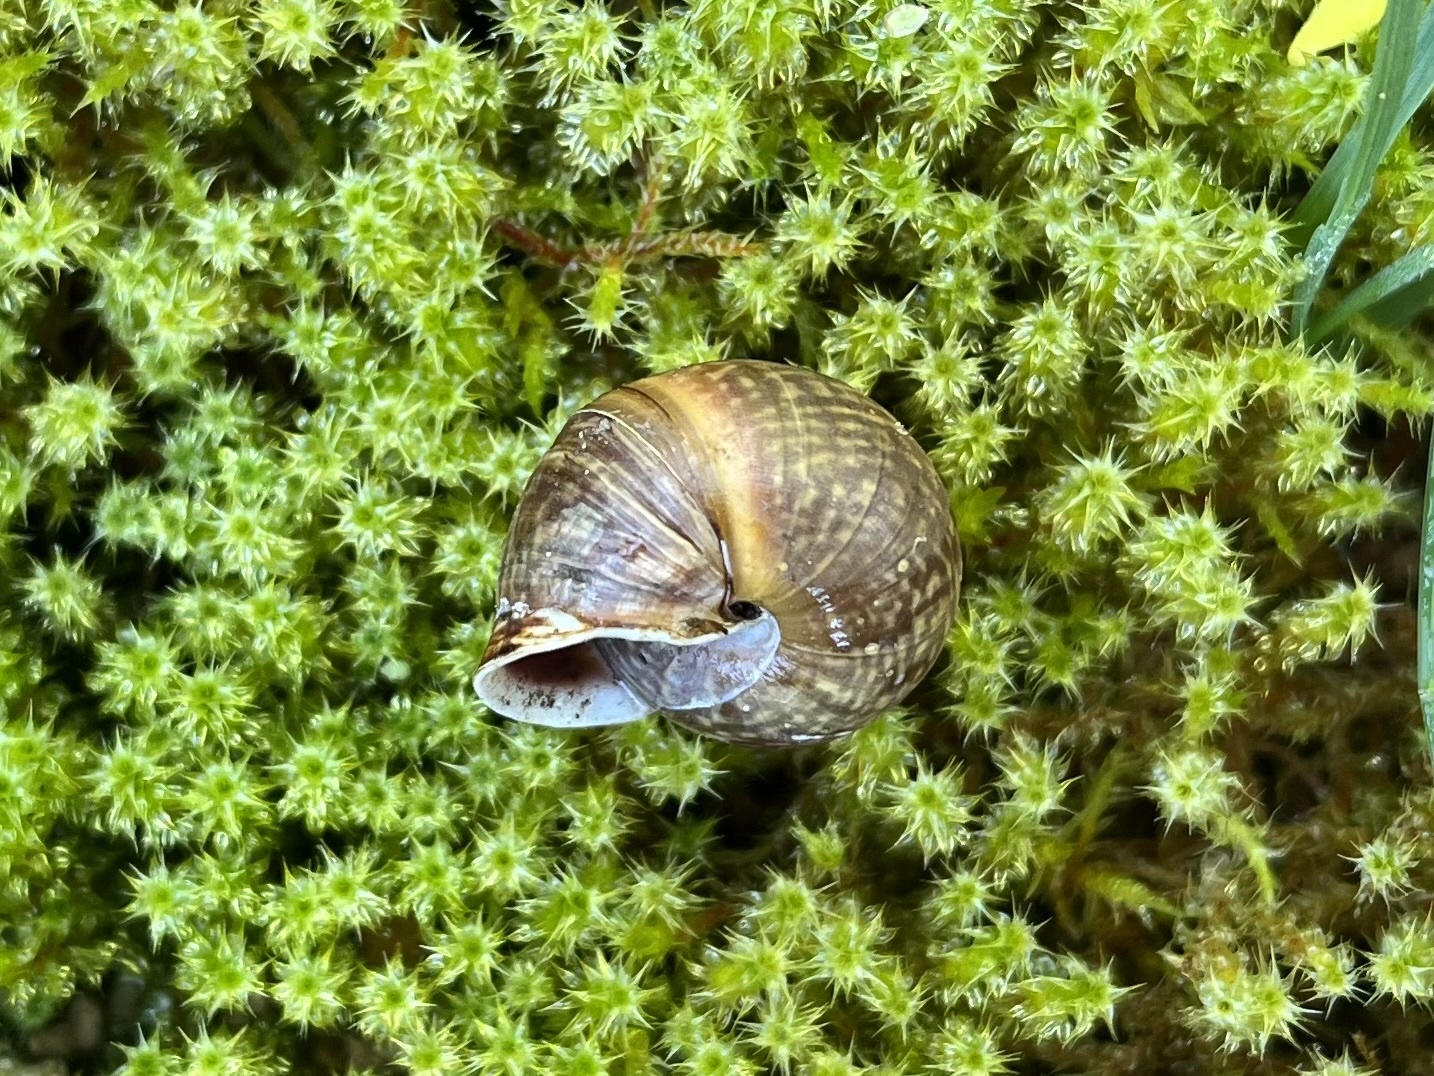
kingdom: Animalia
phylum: Mollusca
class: Gastropoda
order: Stylommatophora
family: Helicidae
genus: Arianta
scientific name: Arianta arbustorum
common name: Copse snail
